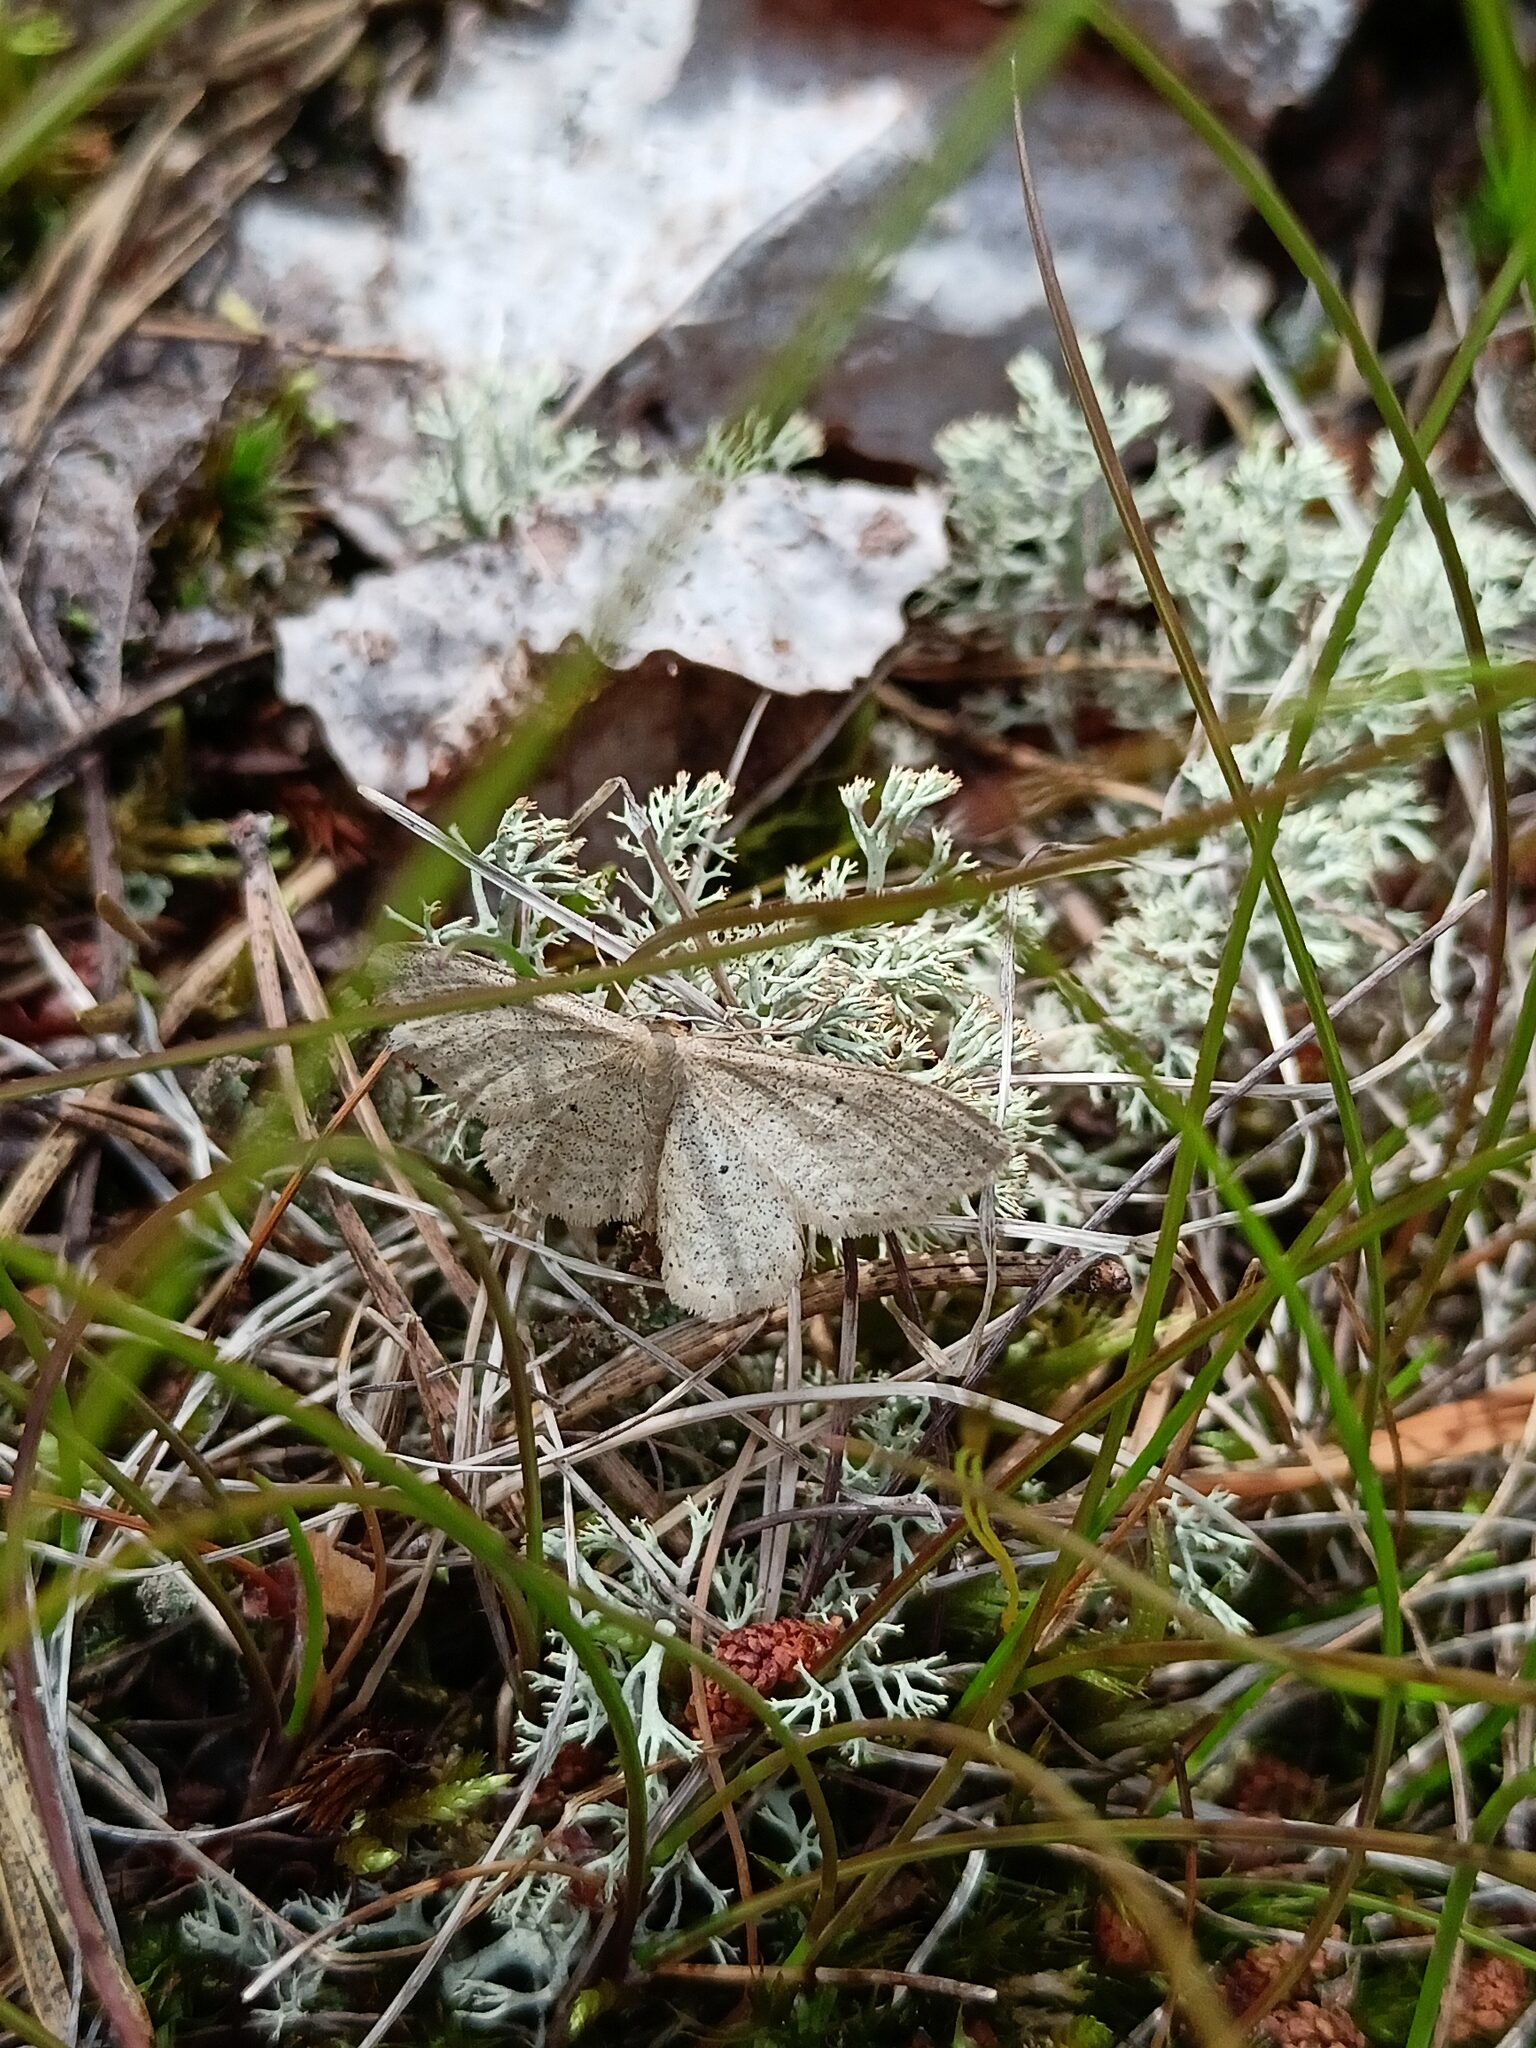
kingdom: Animalia
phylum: Arthropoda
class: Insecta
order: Lepidoptera
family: Geometridae
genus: Idaea
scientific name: Idaea sylvestraria
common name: Dotted borded wave
